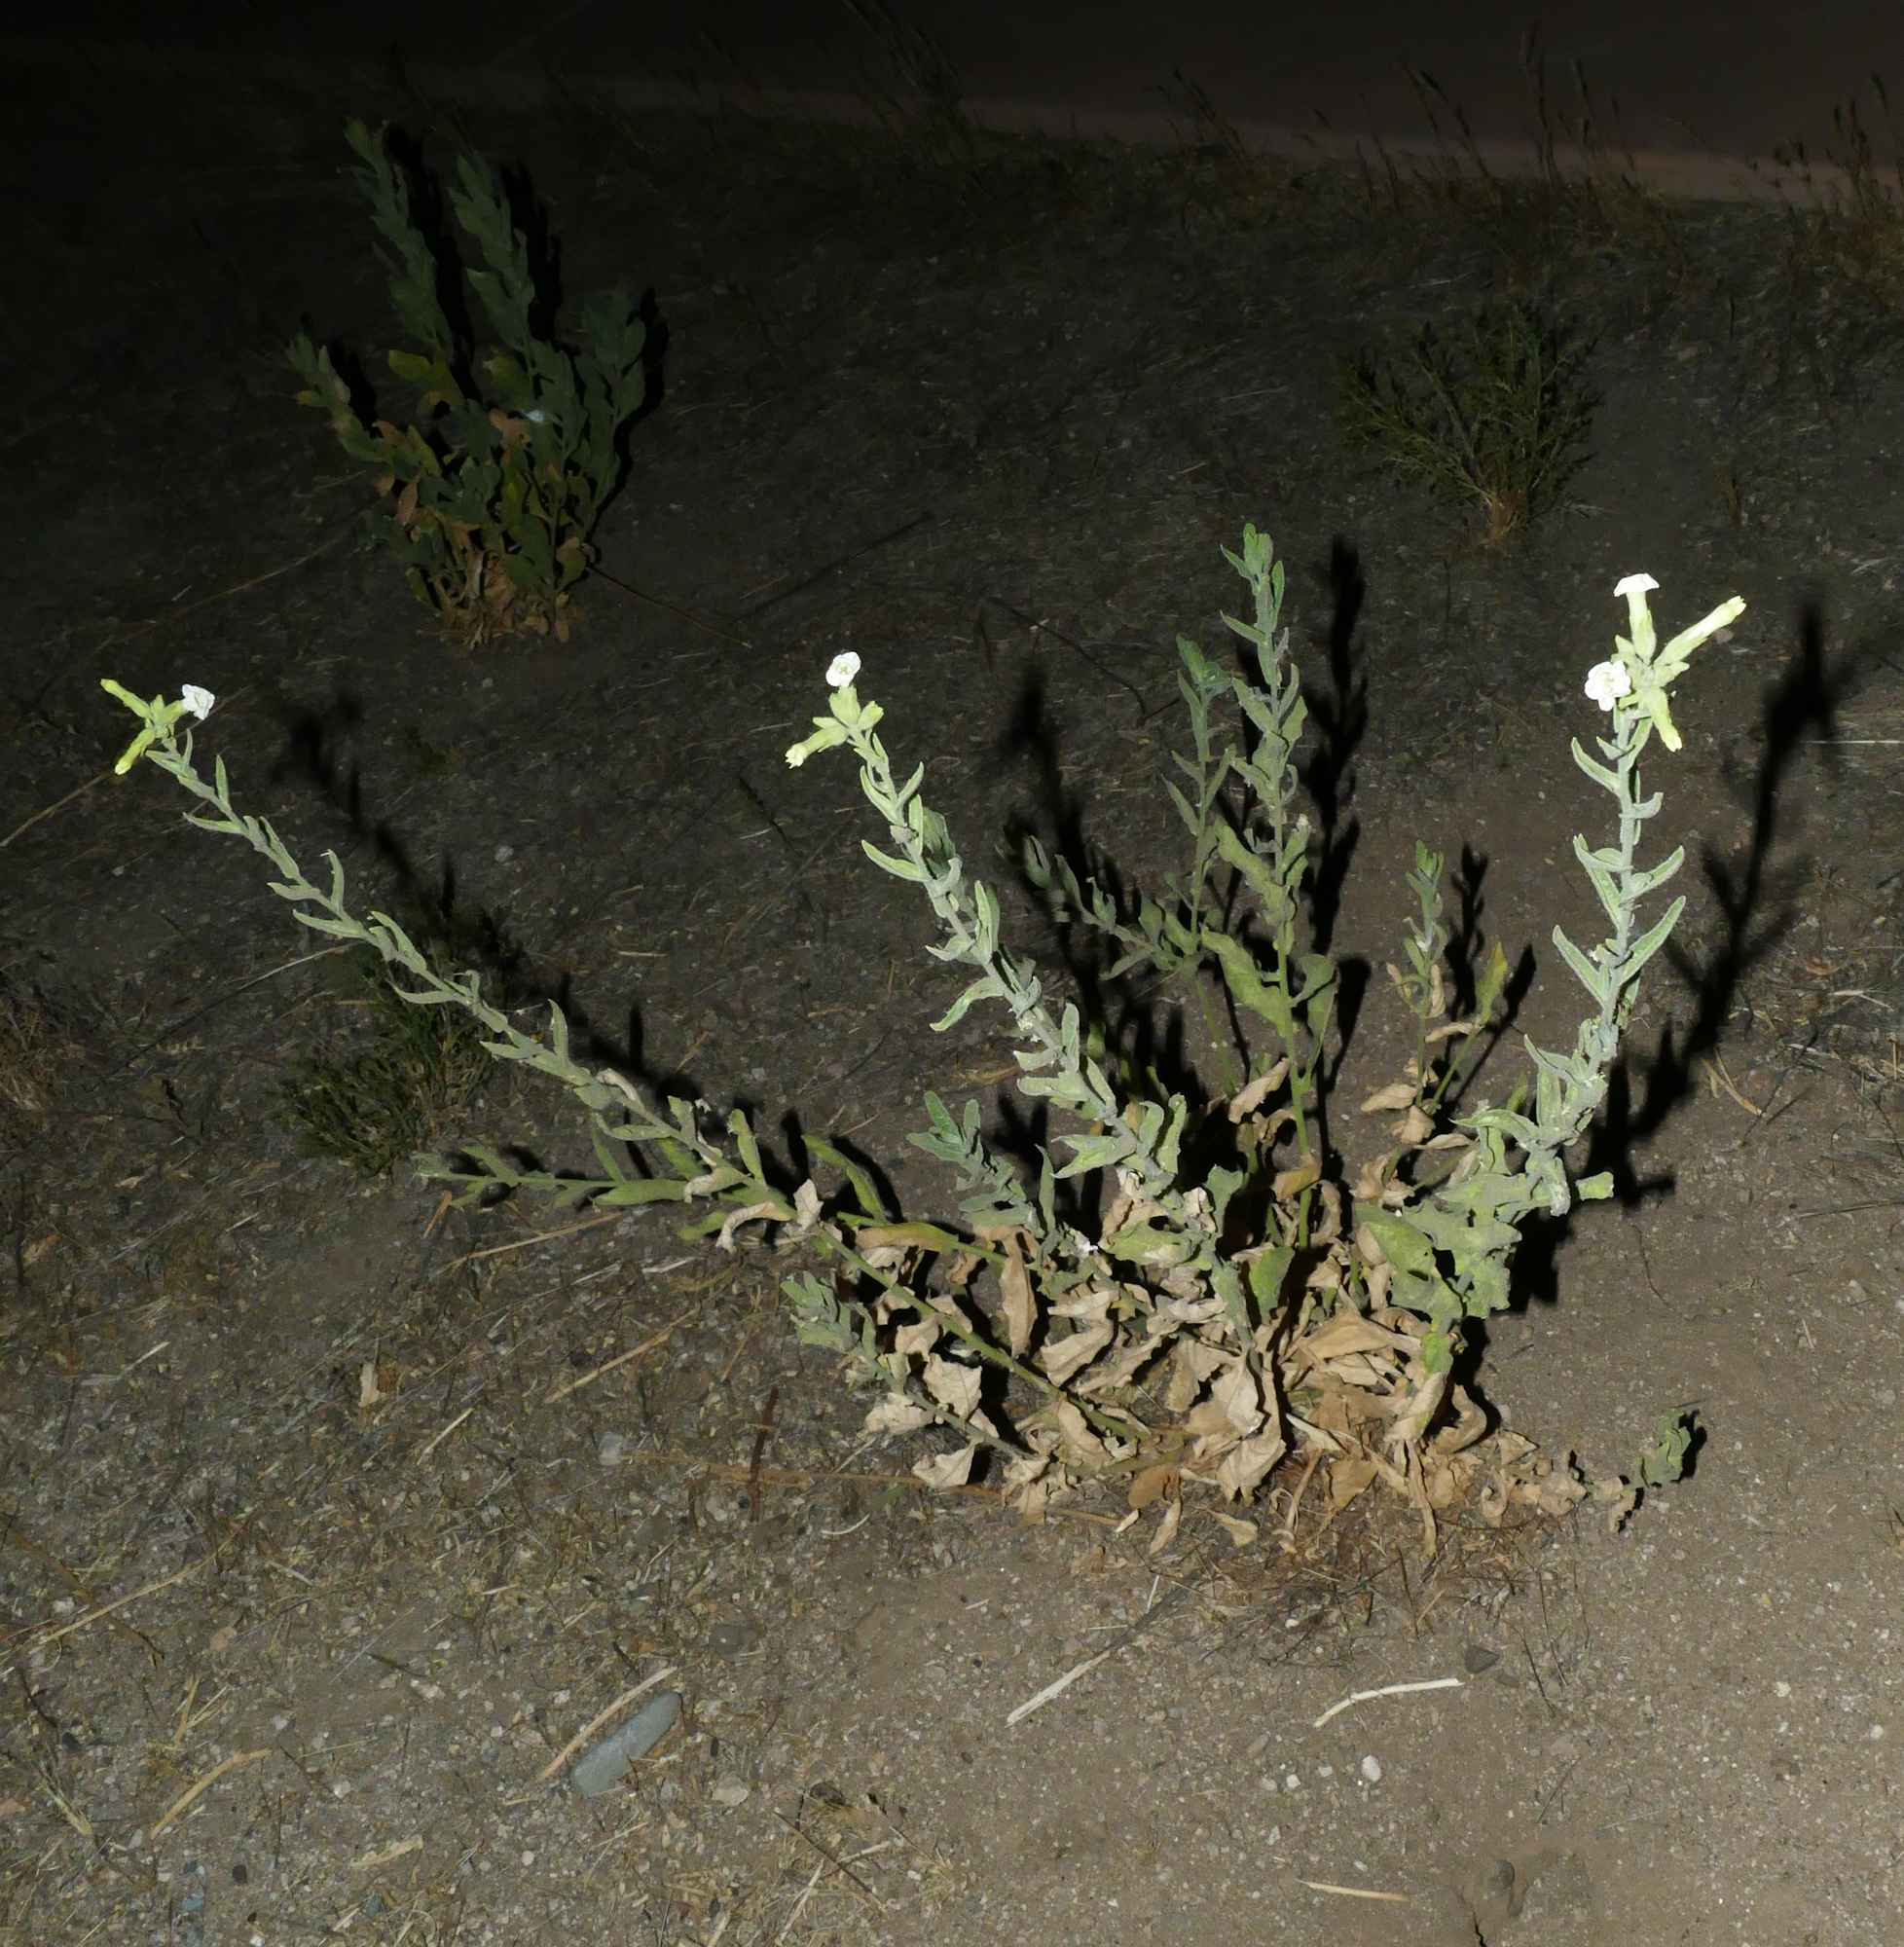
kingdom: Plantae
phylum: Tracheophyta
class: Magnoliopsida
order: Solanales
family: Solanaceae
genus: Nicotiana
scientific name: Nicotiana obtusifolia
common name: Desert tobacco
